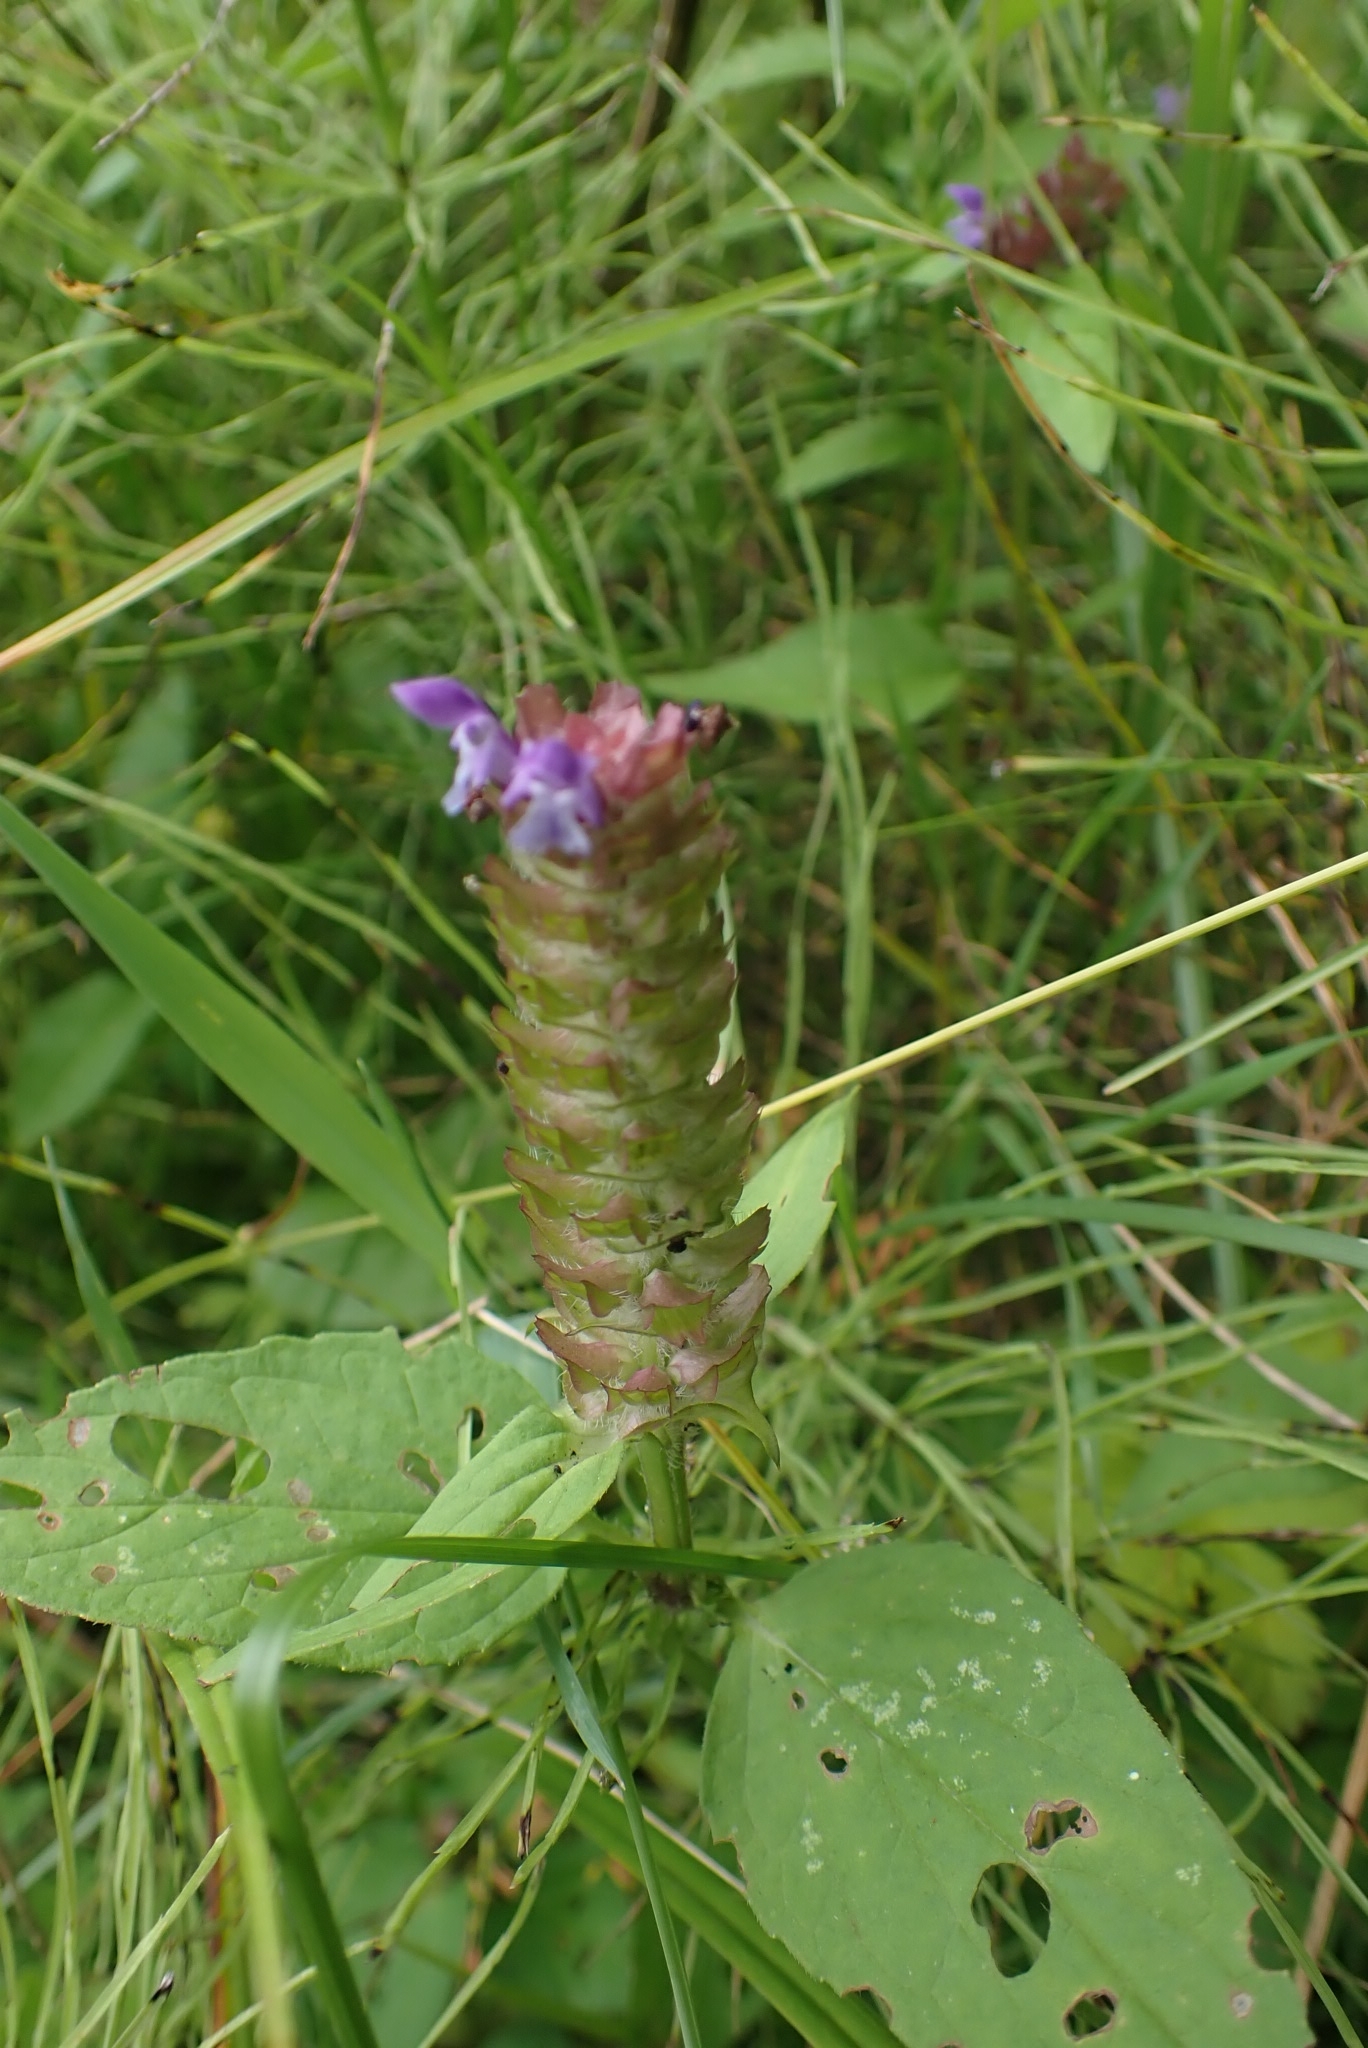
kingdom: Plantae
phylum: Tracheophyta
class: Magnoliopsida
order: Lamiales
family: Lamiaceae
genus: Prunella
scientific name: Prunella vulgaris
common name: Heal-all
